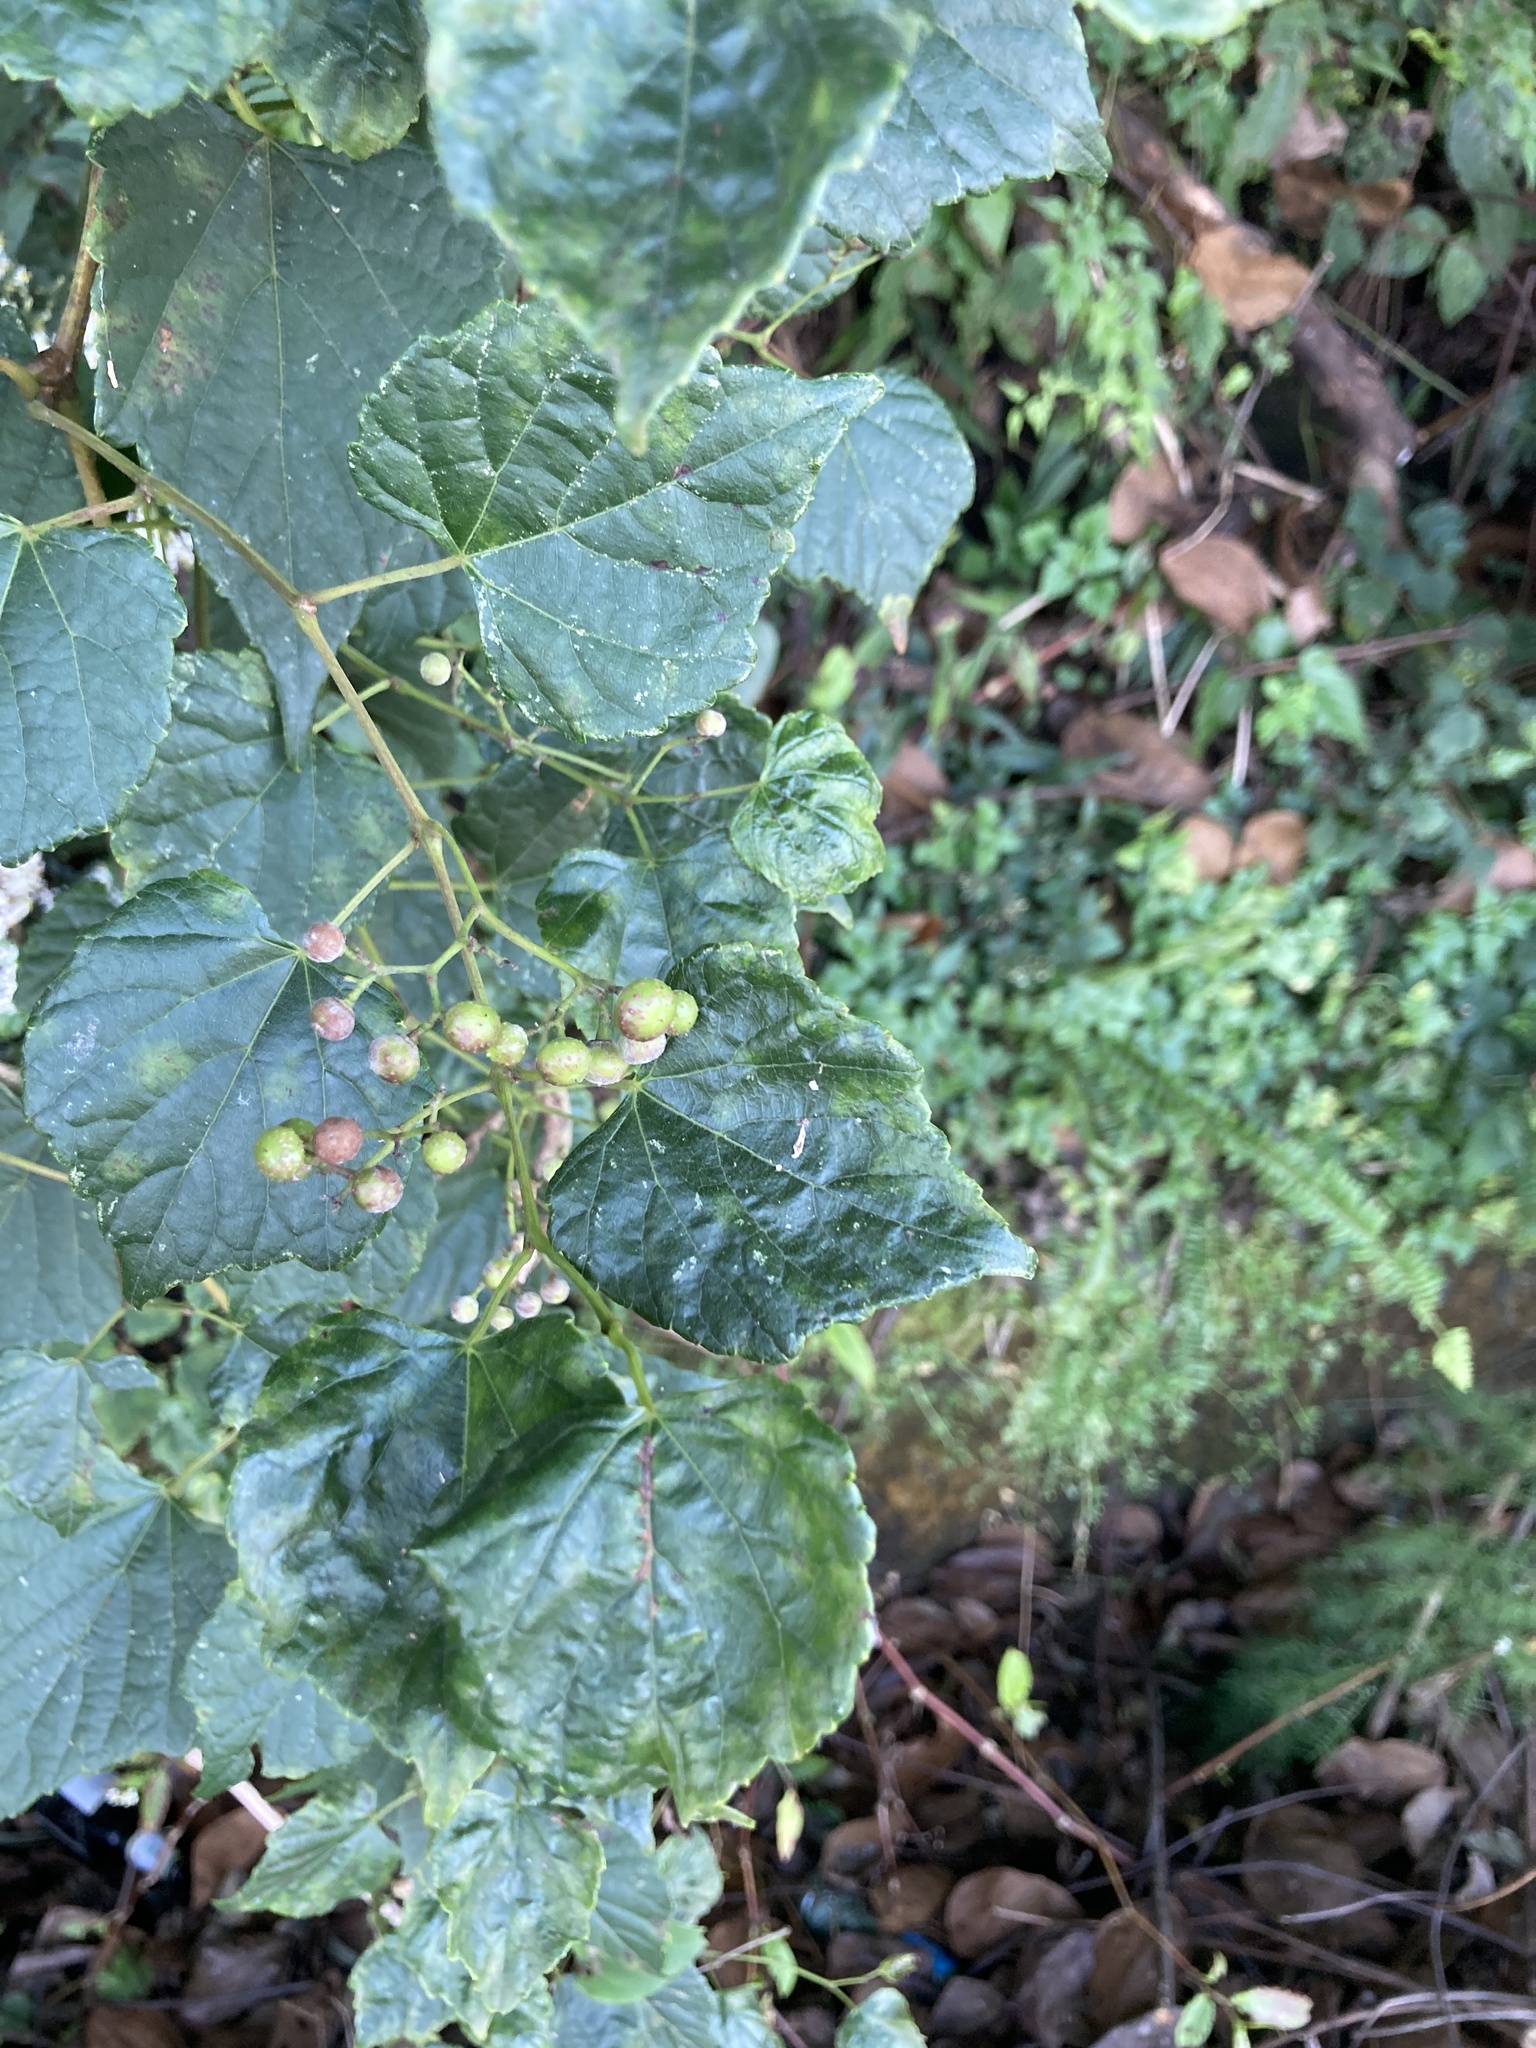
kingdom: Plantae
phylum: Tracheophyta
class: Magnoliopsida
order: Vitales
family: Vitaceae
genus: Ampelopsis
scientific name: Ampelopsis glandulosa
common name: Amur peppervine
